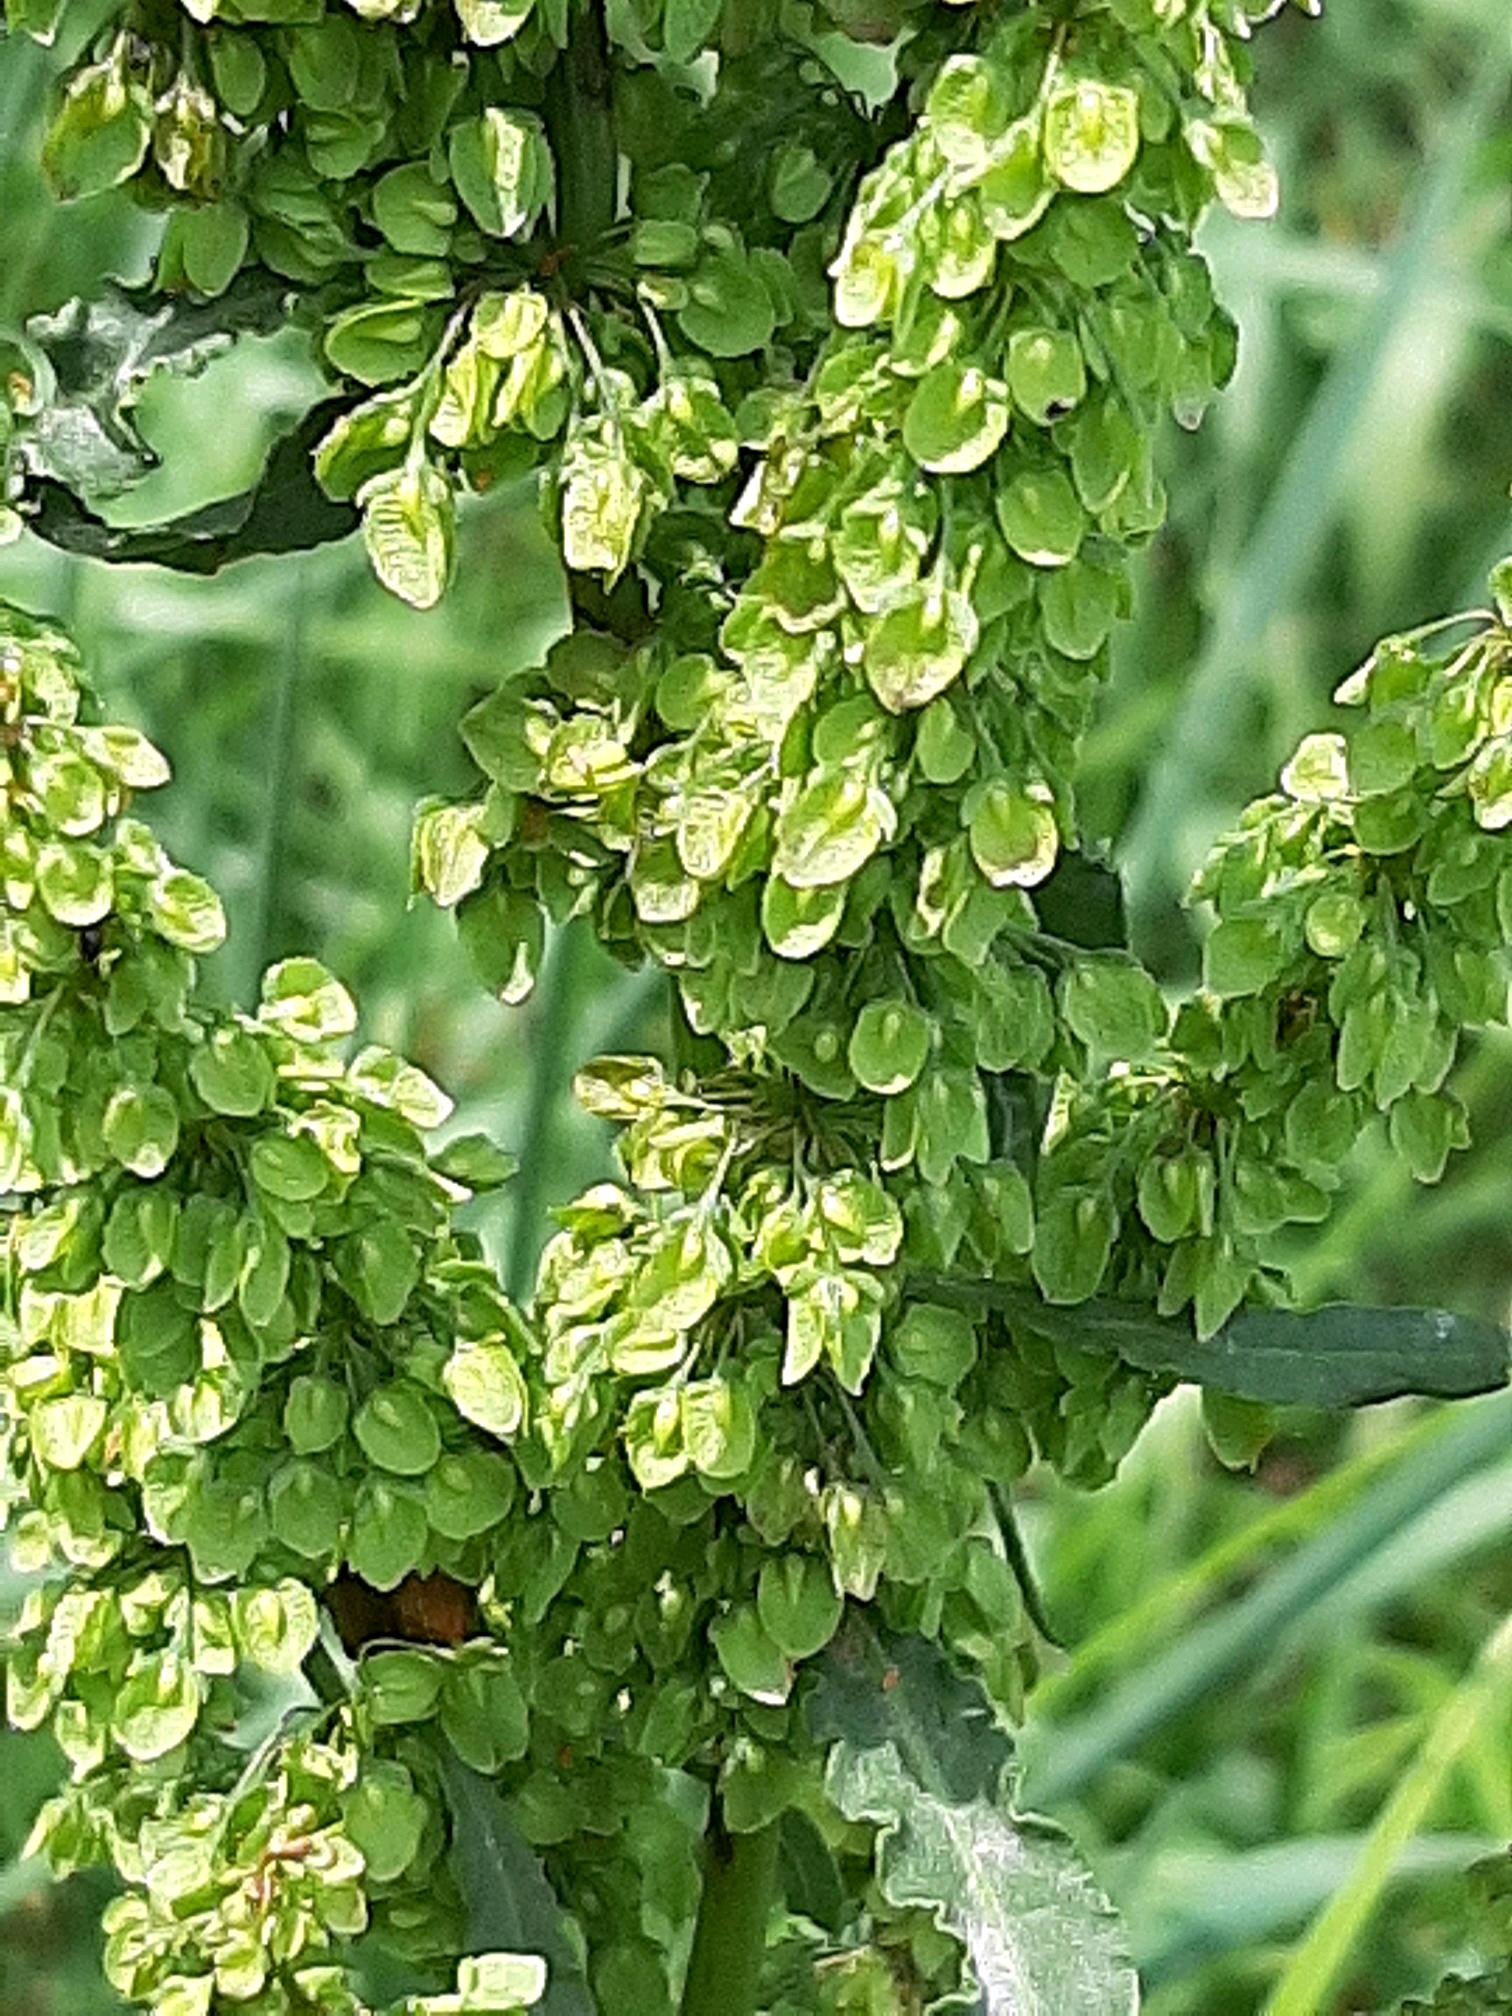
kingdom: Plantae
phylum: Tracheophyta
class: Magnoliopsida
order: Caryophyllales
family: Polygonaceae
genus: Rumex
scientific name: Rumex crispus
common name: Curled dock
